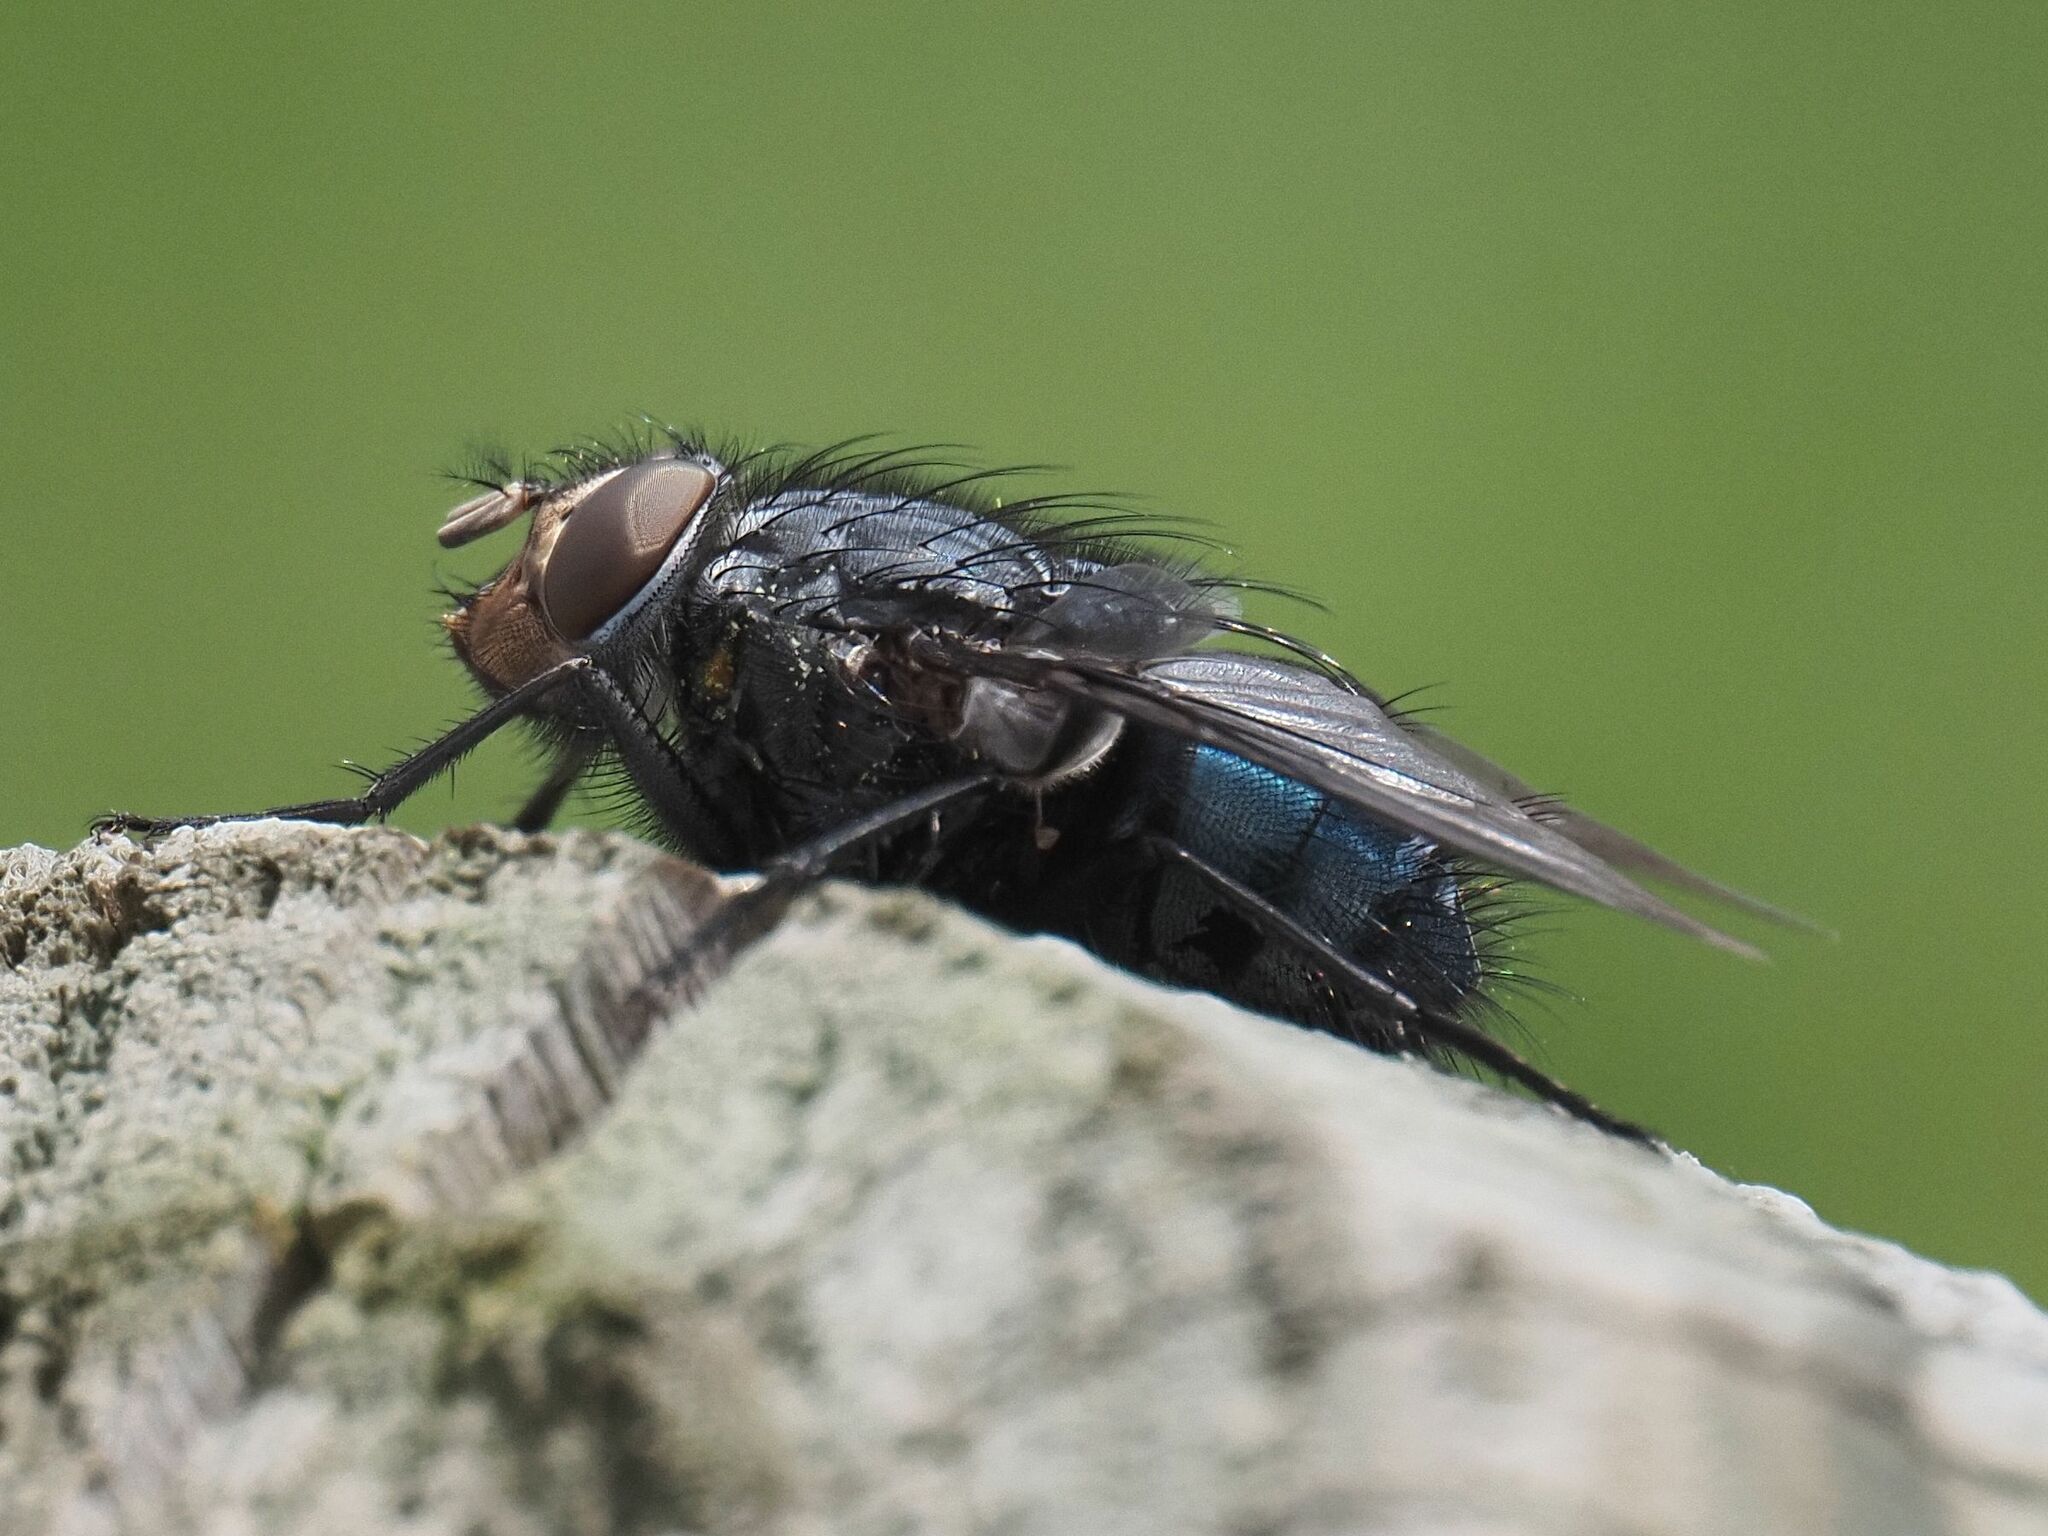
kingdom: Animalia
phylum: Arthropoda
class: Insecta
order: Diptera
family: Calliphoridae
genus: Calliphora
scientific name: Calliphora vicina
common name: Common blow flie
